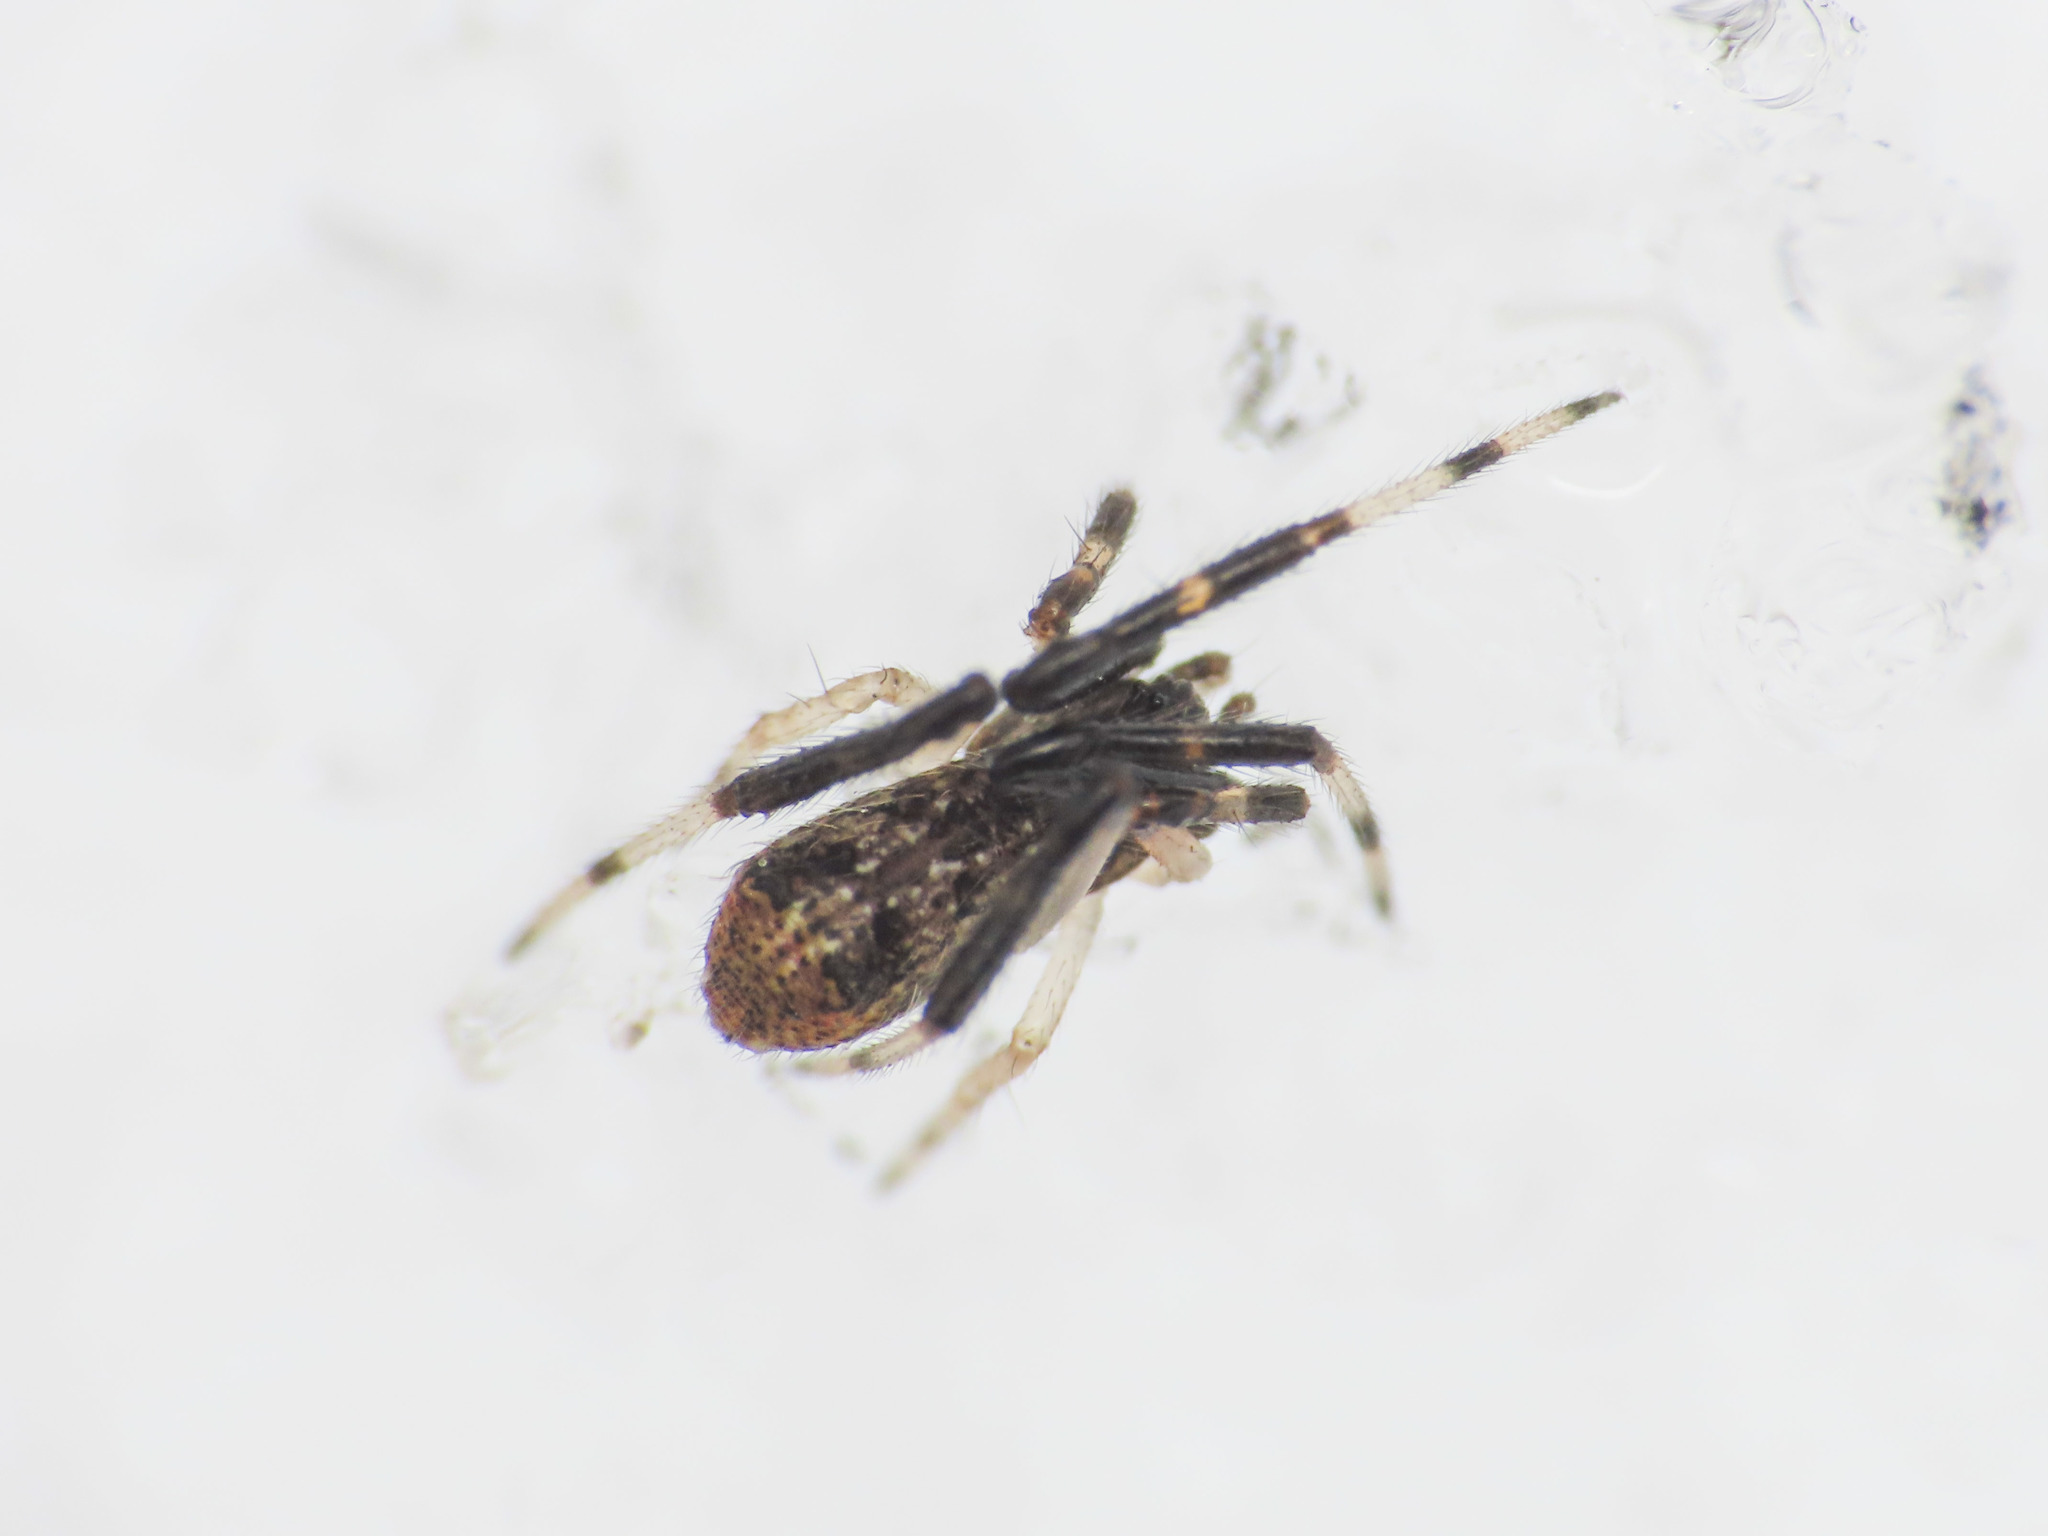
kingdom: Animalia
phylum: Arthropoda
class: Arachnida
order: Araneae
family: Theridiidae
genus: Episinus
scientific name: Episinus truncatus
